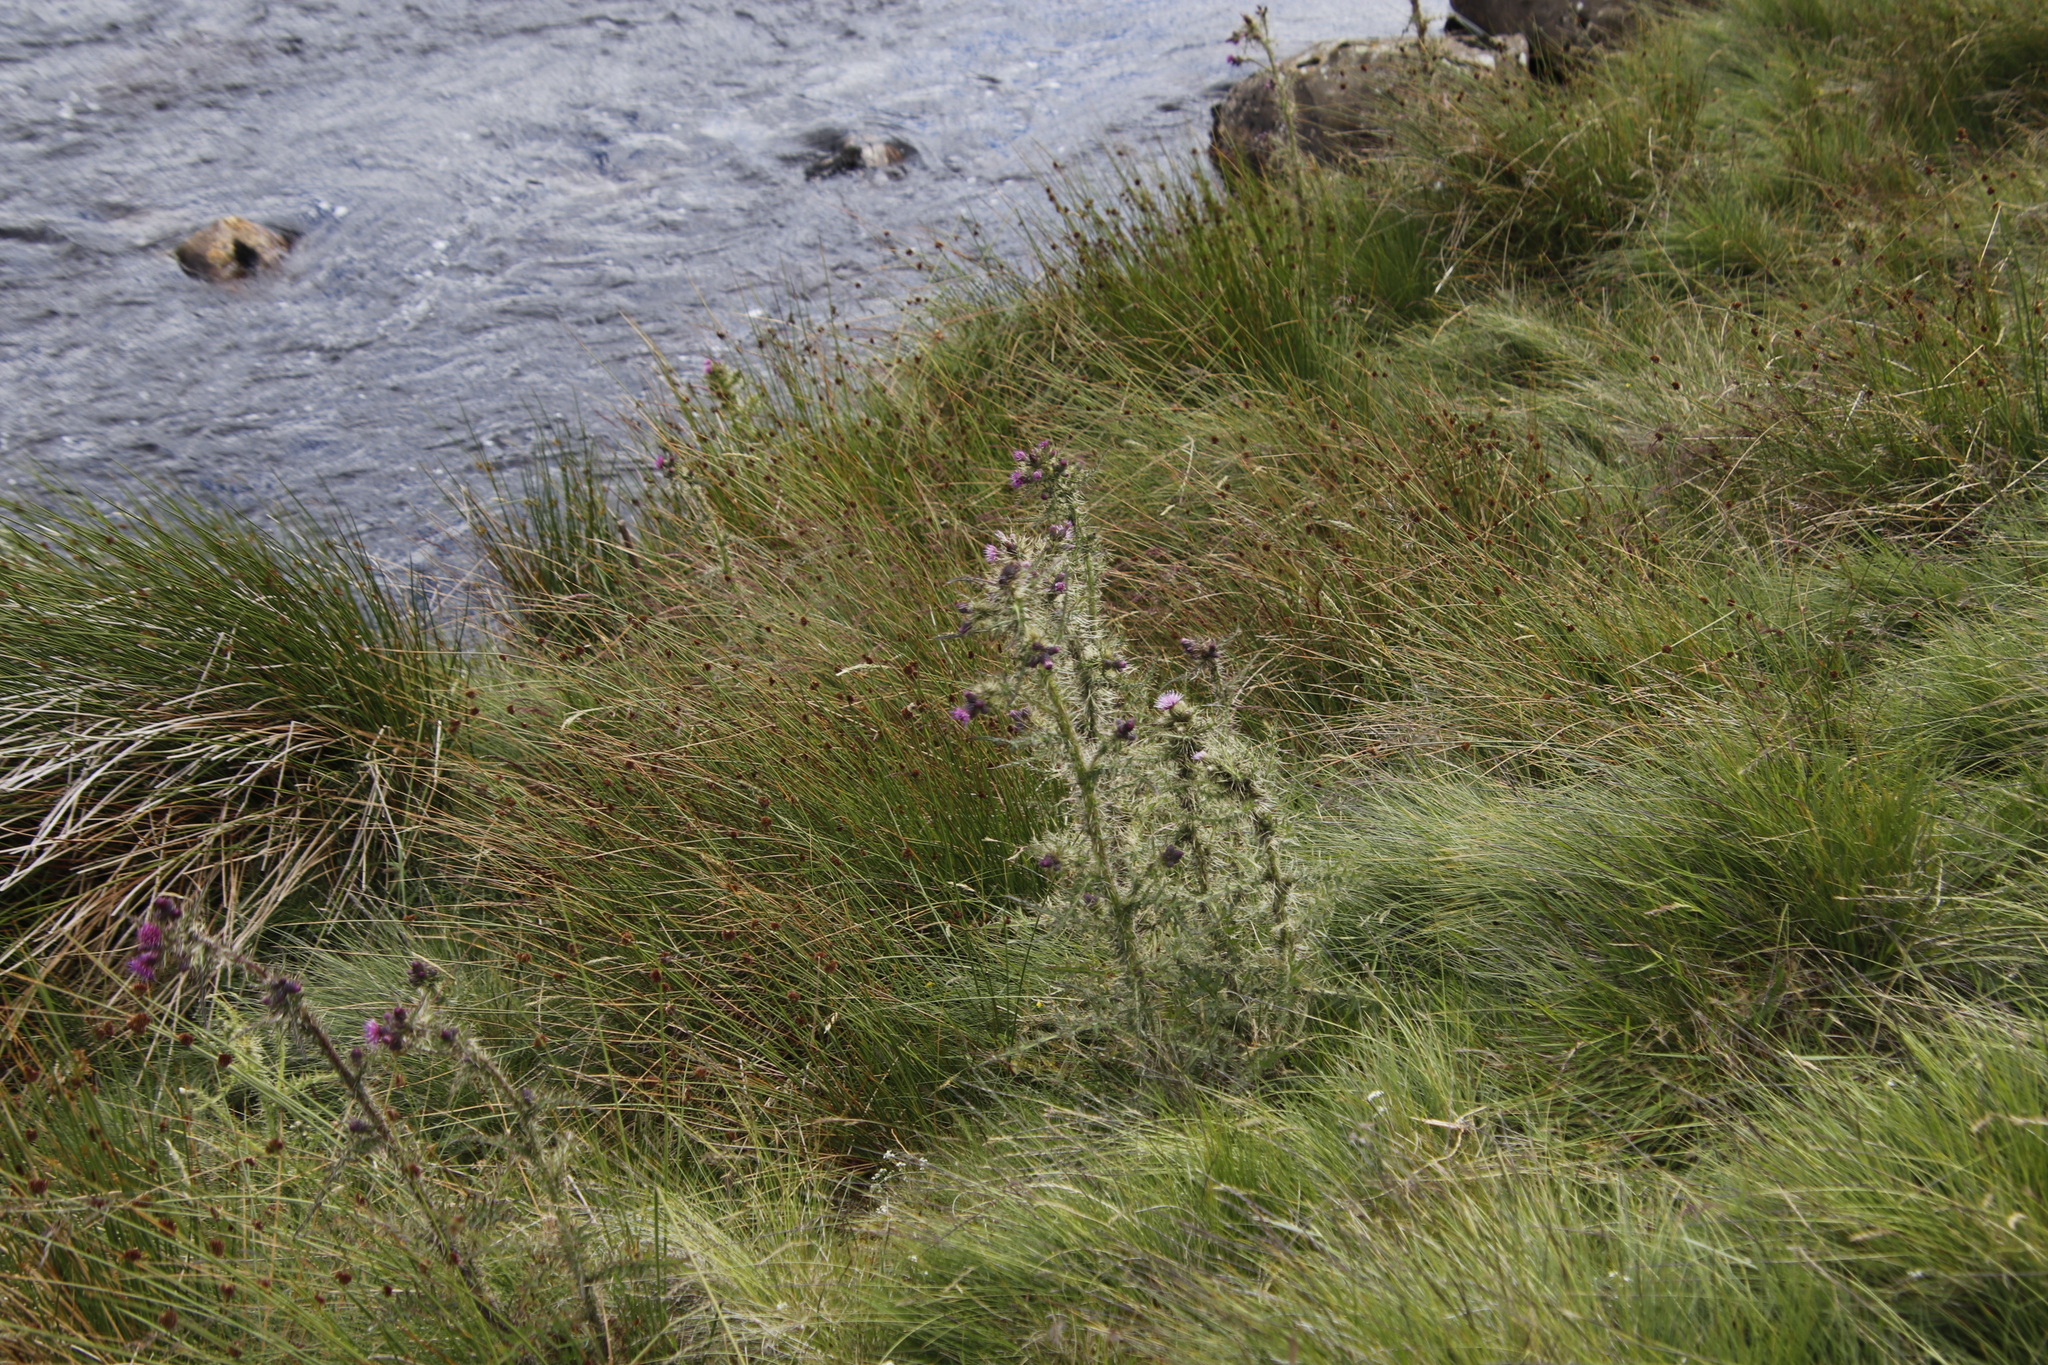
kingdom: Plantae
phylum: Tracheophyta
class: Magnoliopsida
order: Asterales
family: Asteraceae
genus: Cirsium
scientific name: Cirsium palustre
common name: Marsh thistle
